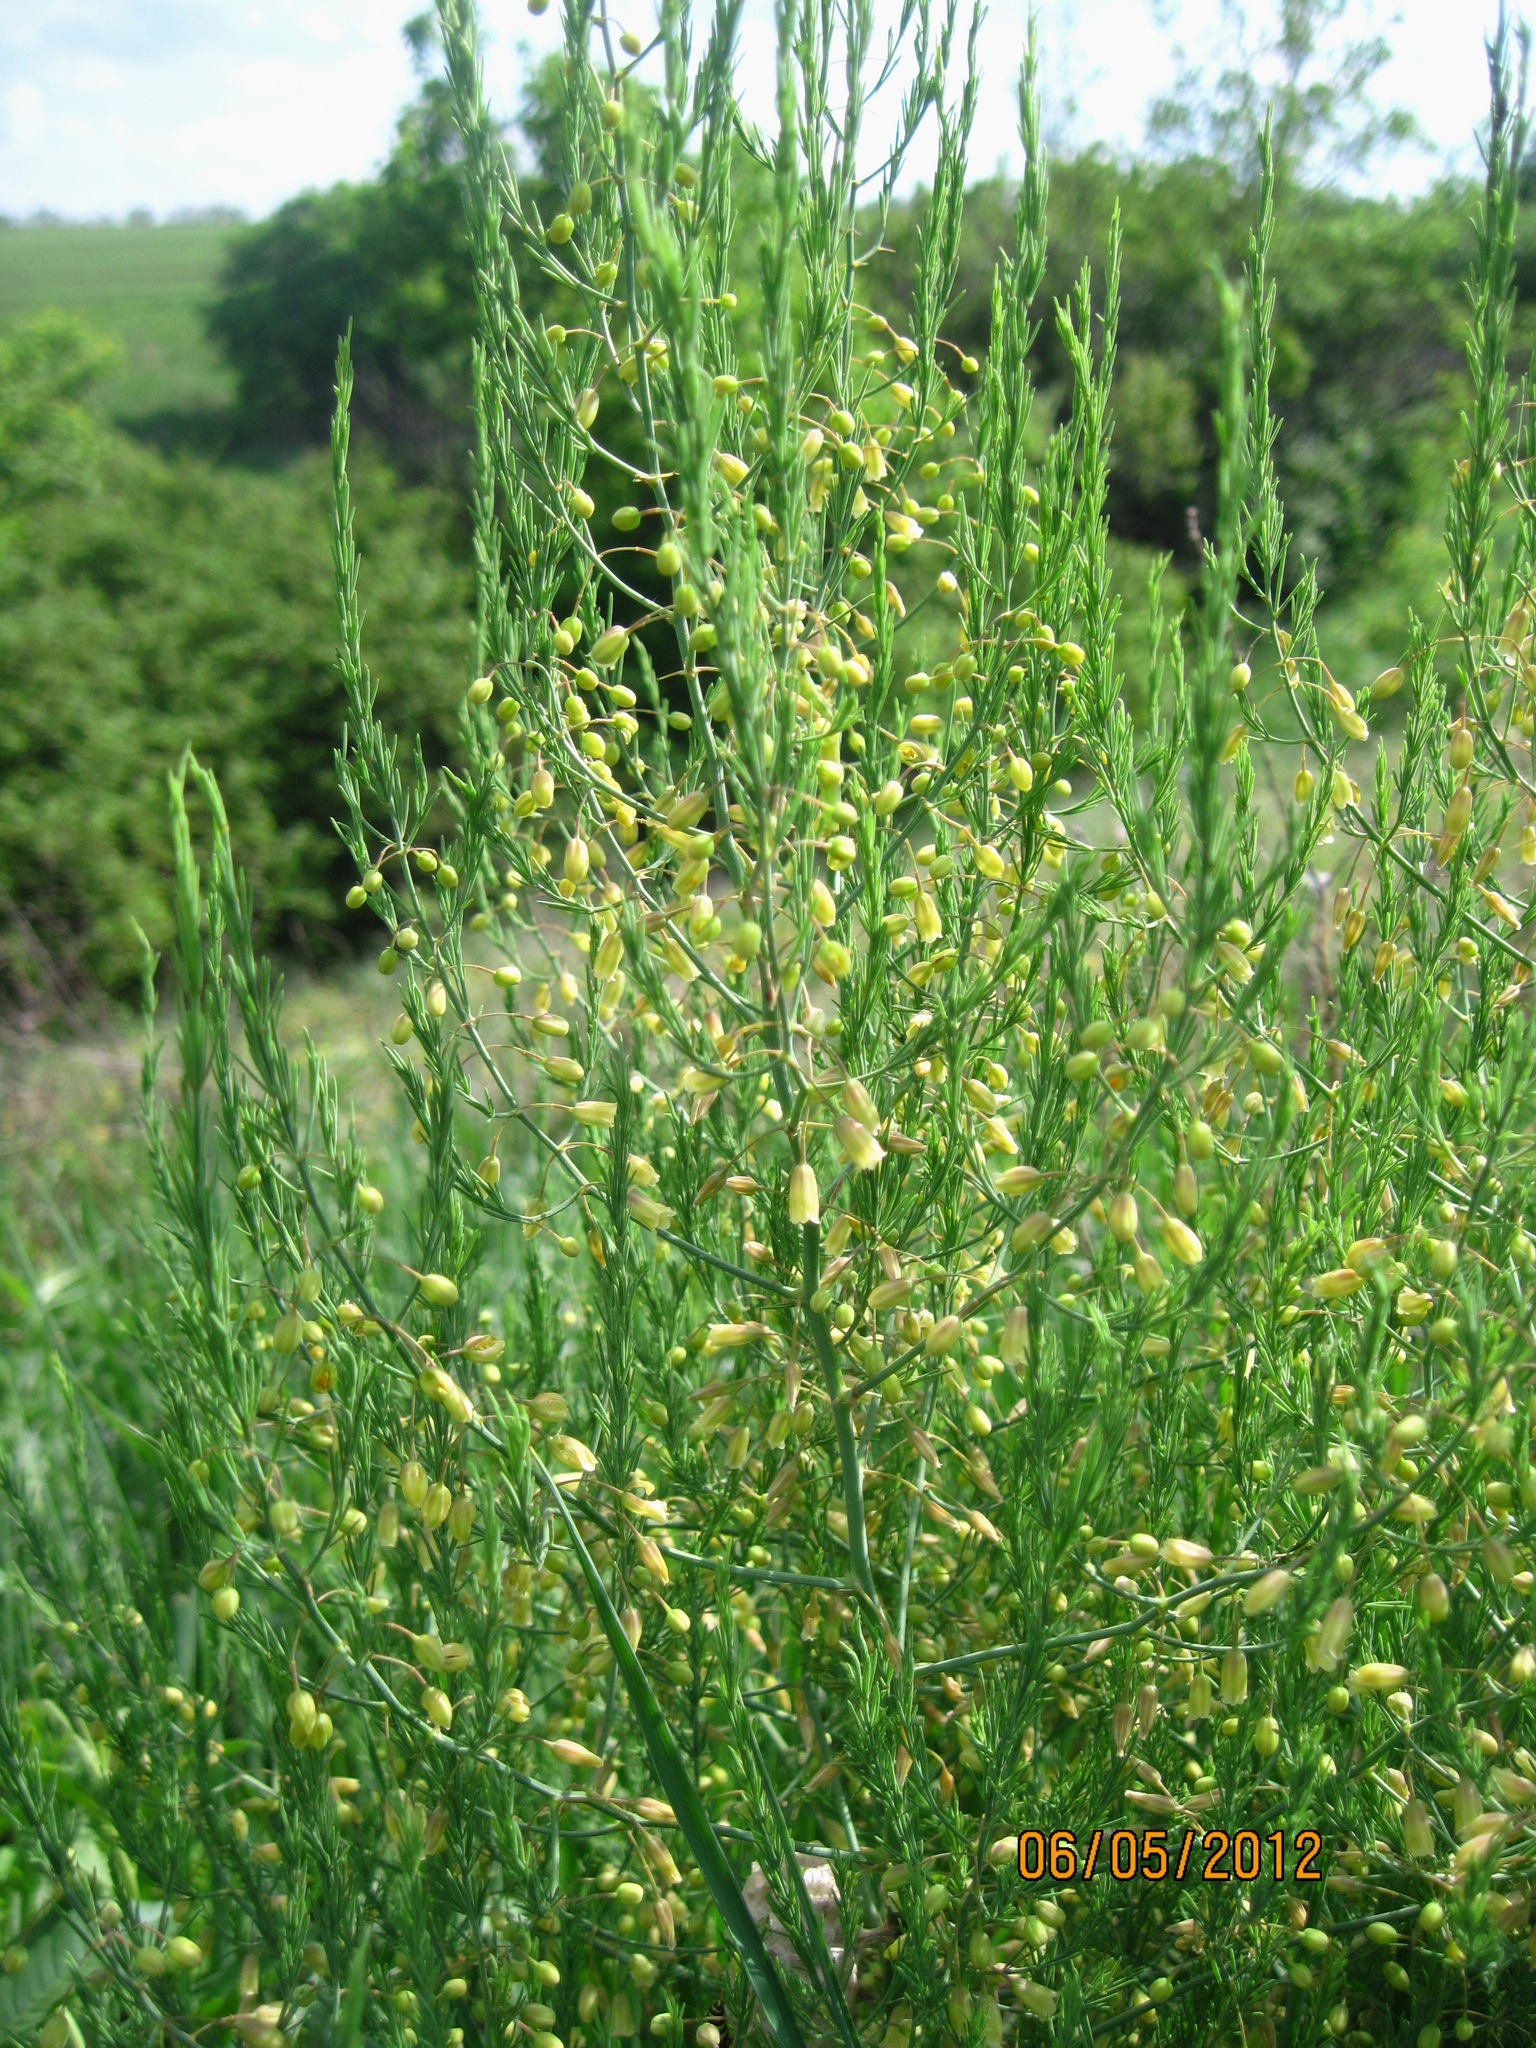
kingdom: Plantae
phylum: Tracheophyta
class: Liliopsida
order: Asparagales
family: Asparagaceae
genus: Asparagus
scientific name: Asparagus officinalis
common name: Garden asparagus
